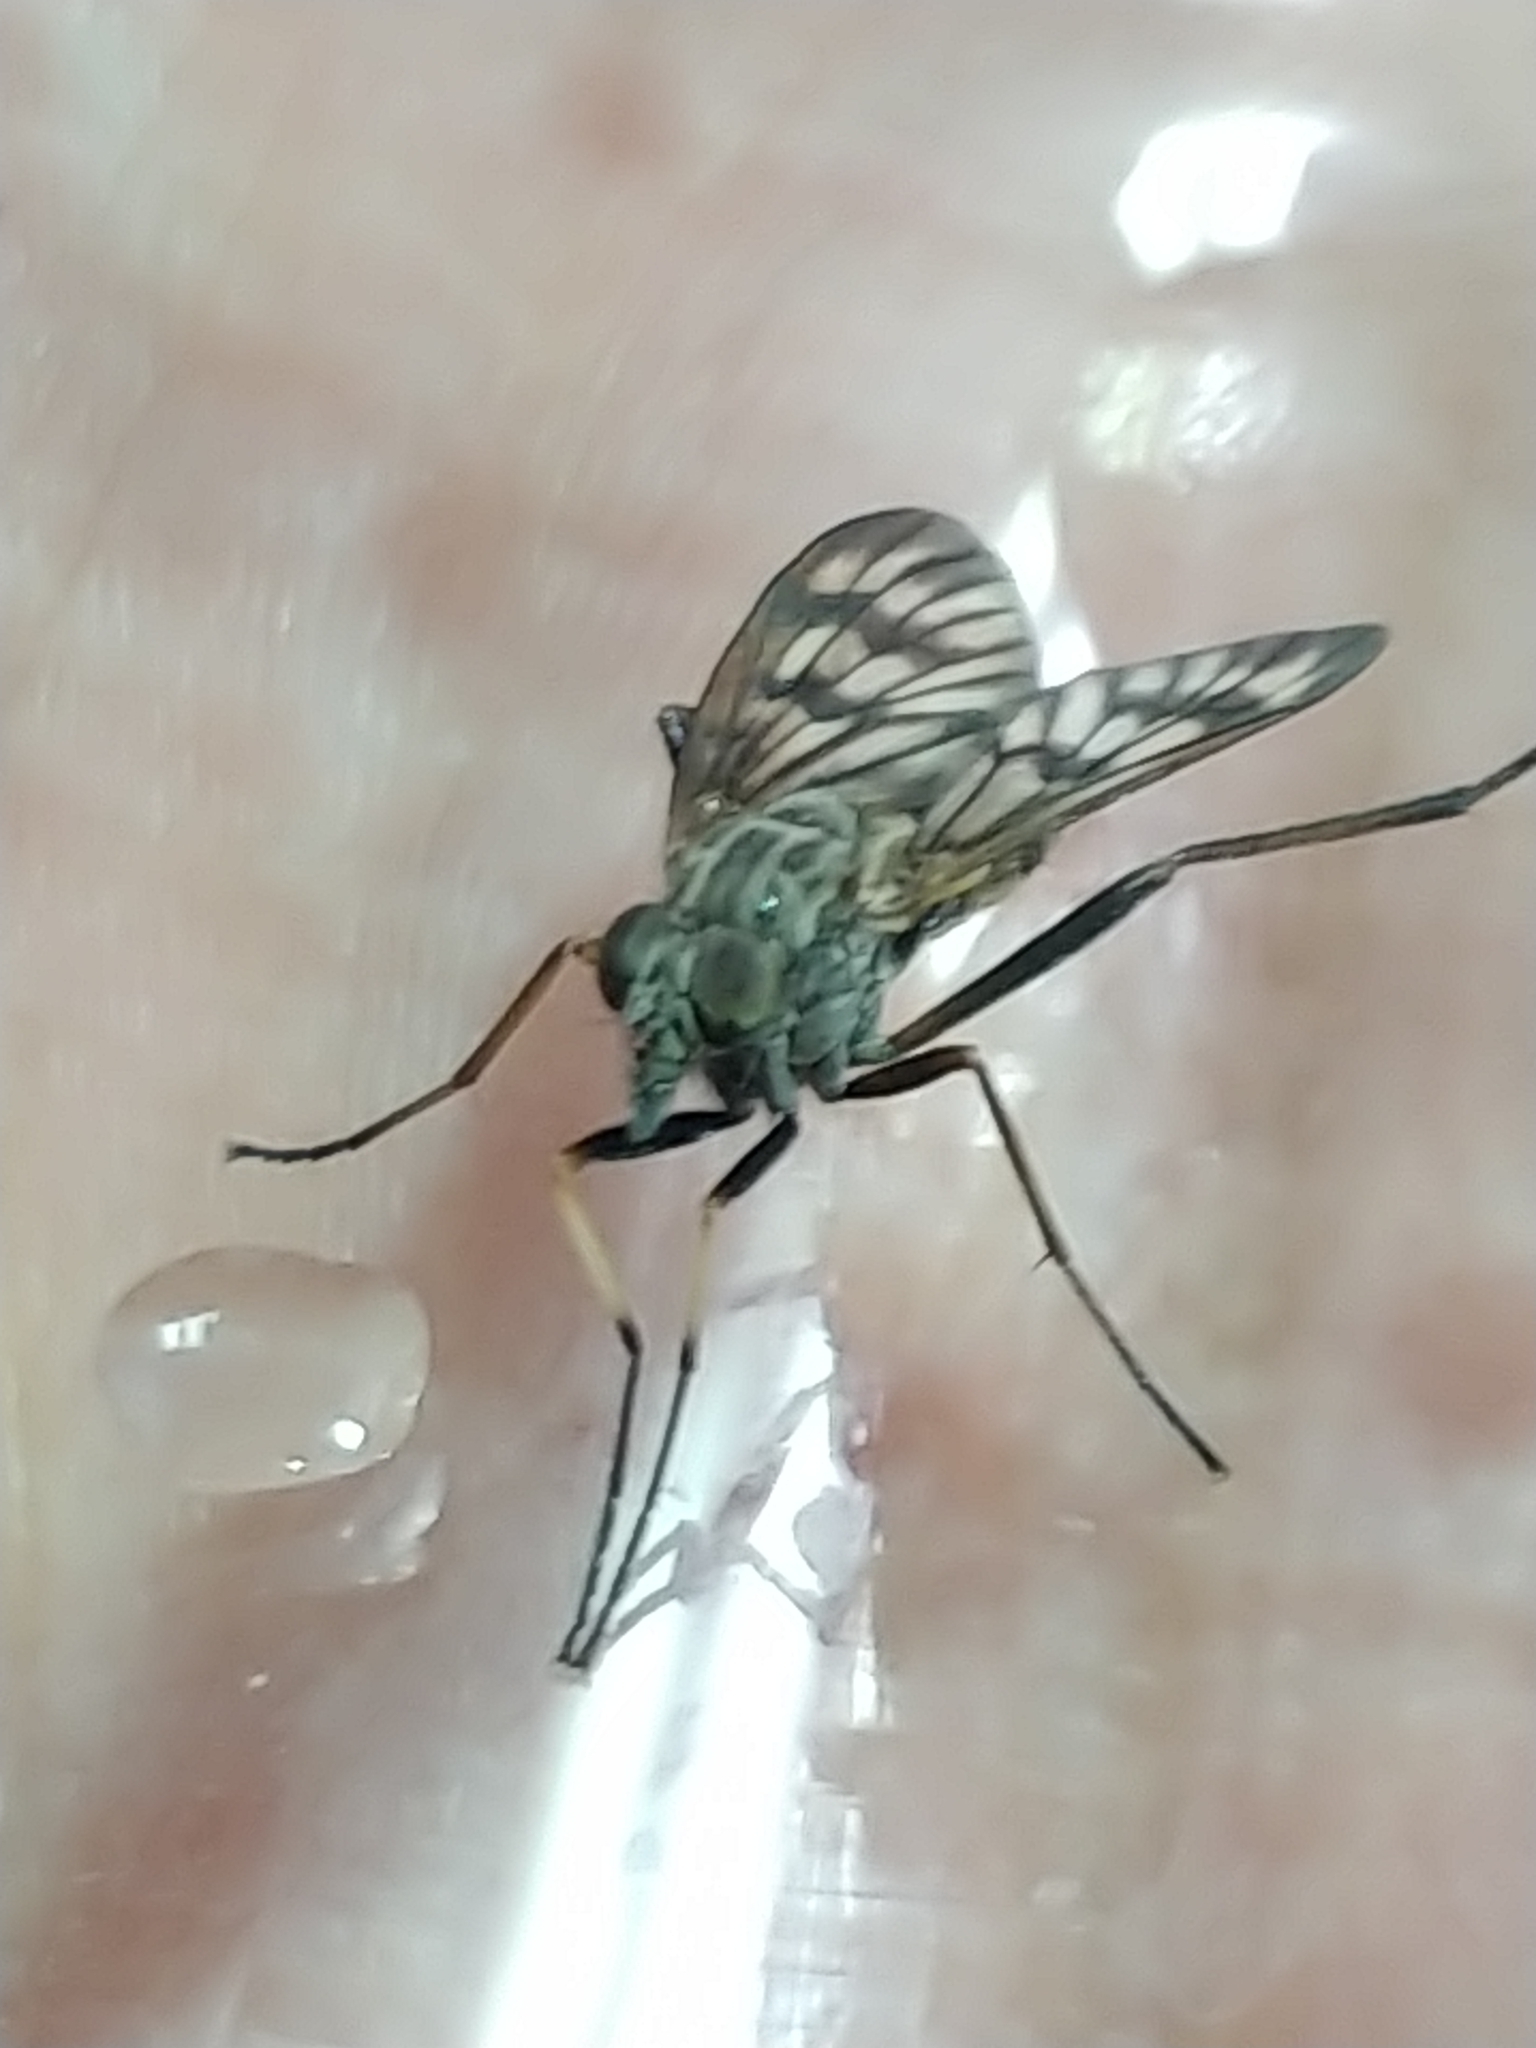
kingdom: Animalia
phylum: Arthropoda
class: Insecta
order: Diptera
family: Rhagionidae
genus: Rhagio
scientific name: Rhagio mystaceus
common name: Common snipe fly
